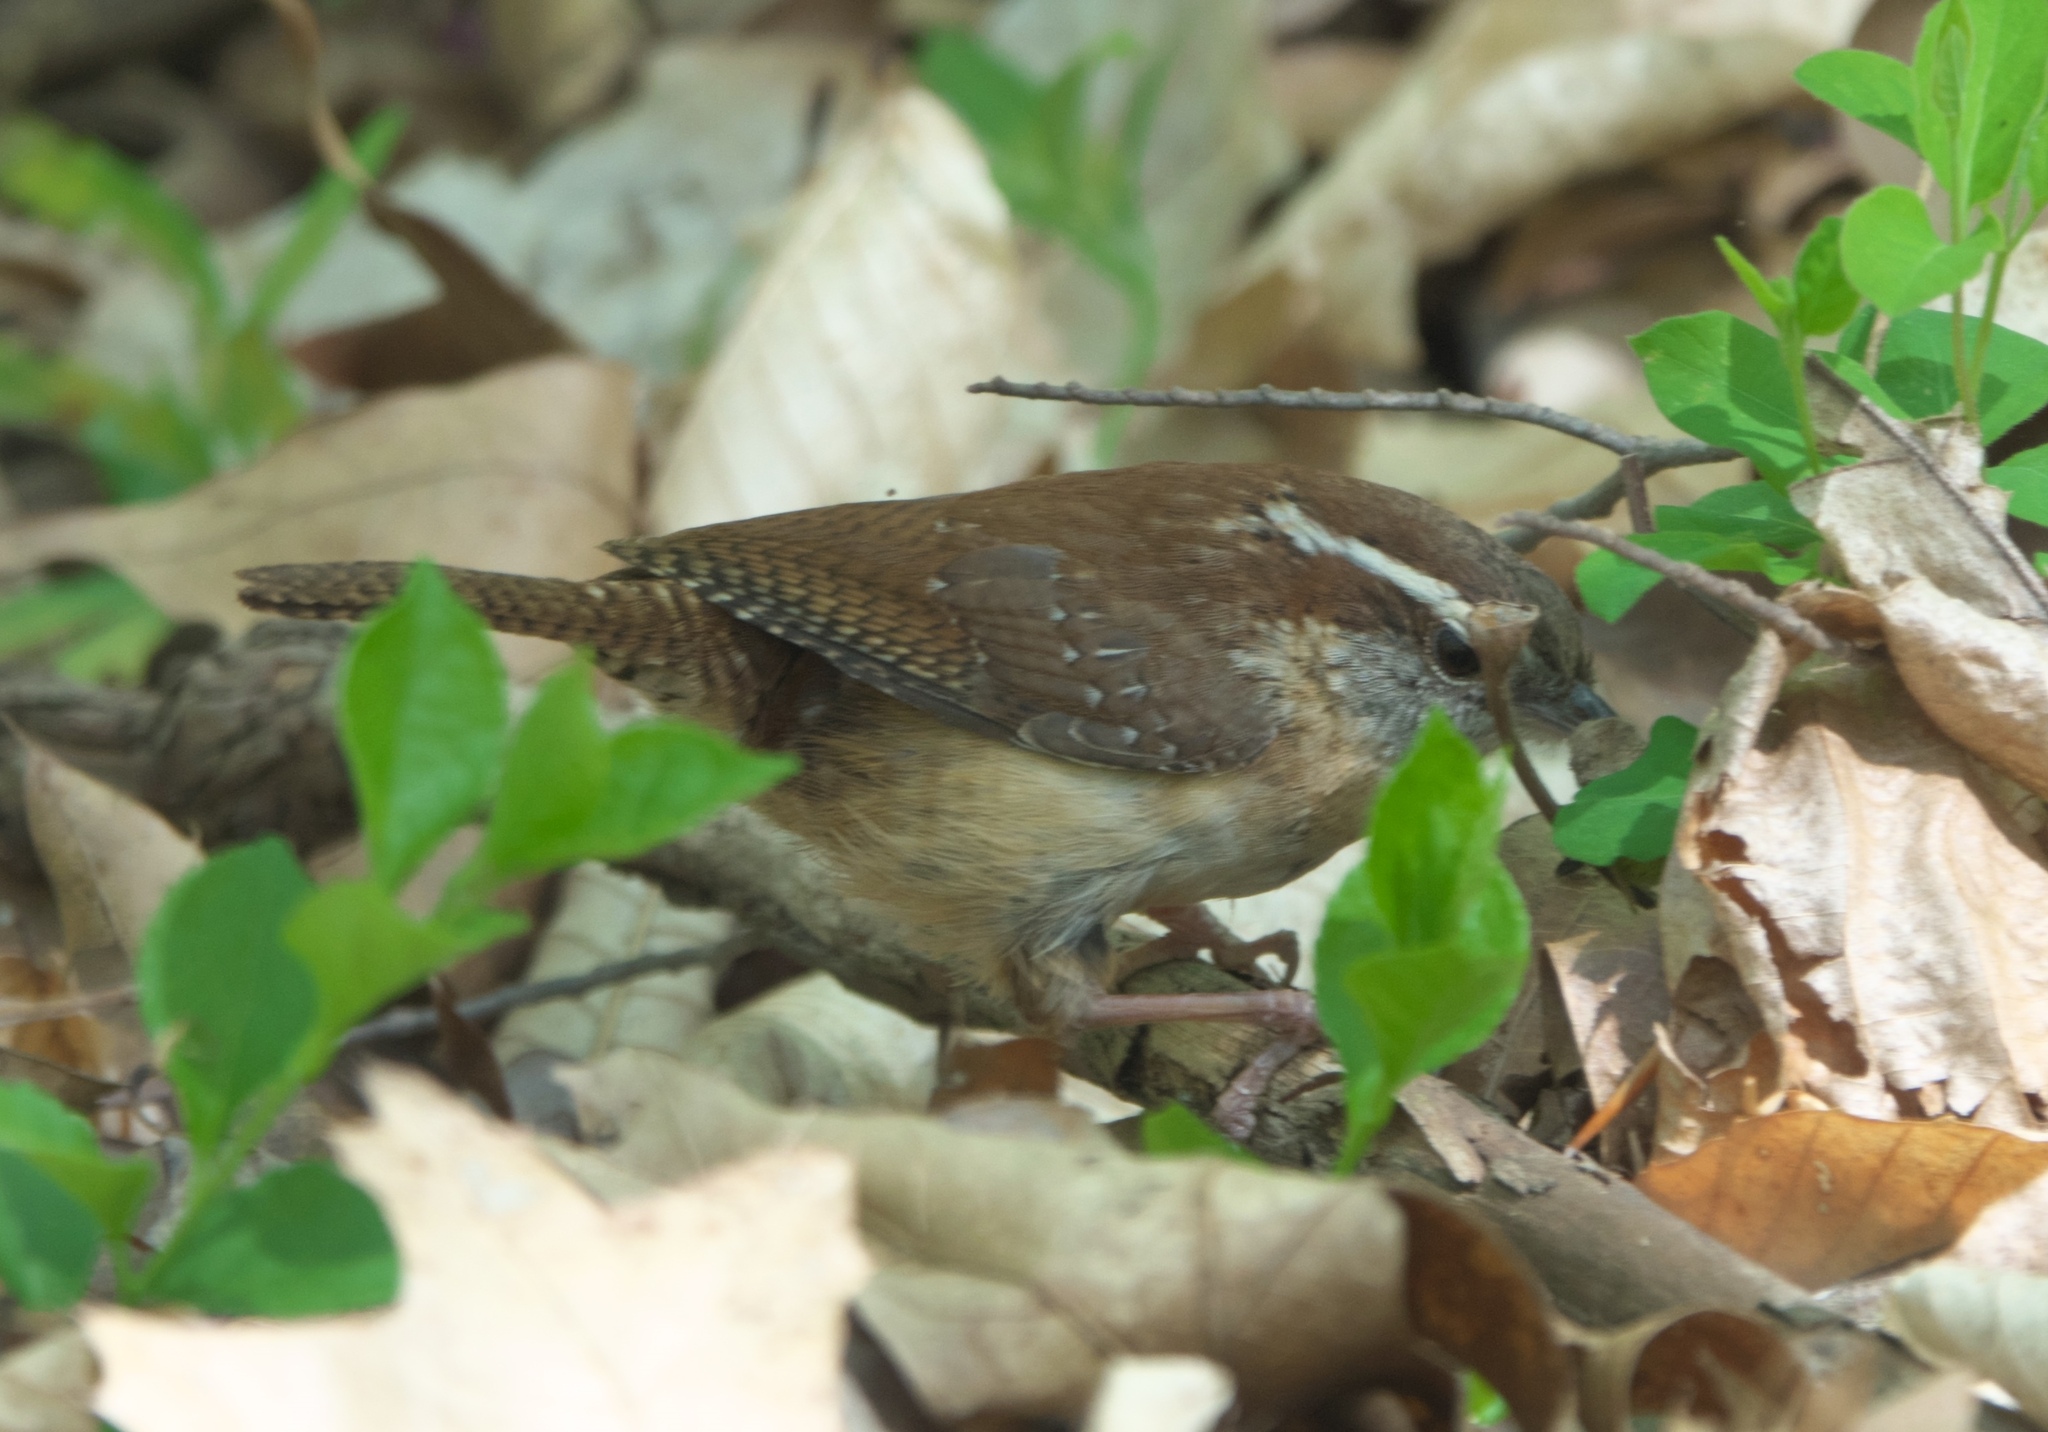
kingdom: Animalia
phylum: Chordata
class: Aves
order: Passeriformes
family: Troglodytidae
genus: Thryothorus
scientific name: Thryothorus ludovicianus
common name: Carolina wren
